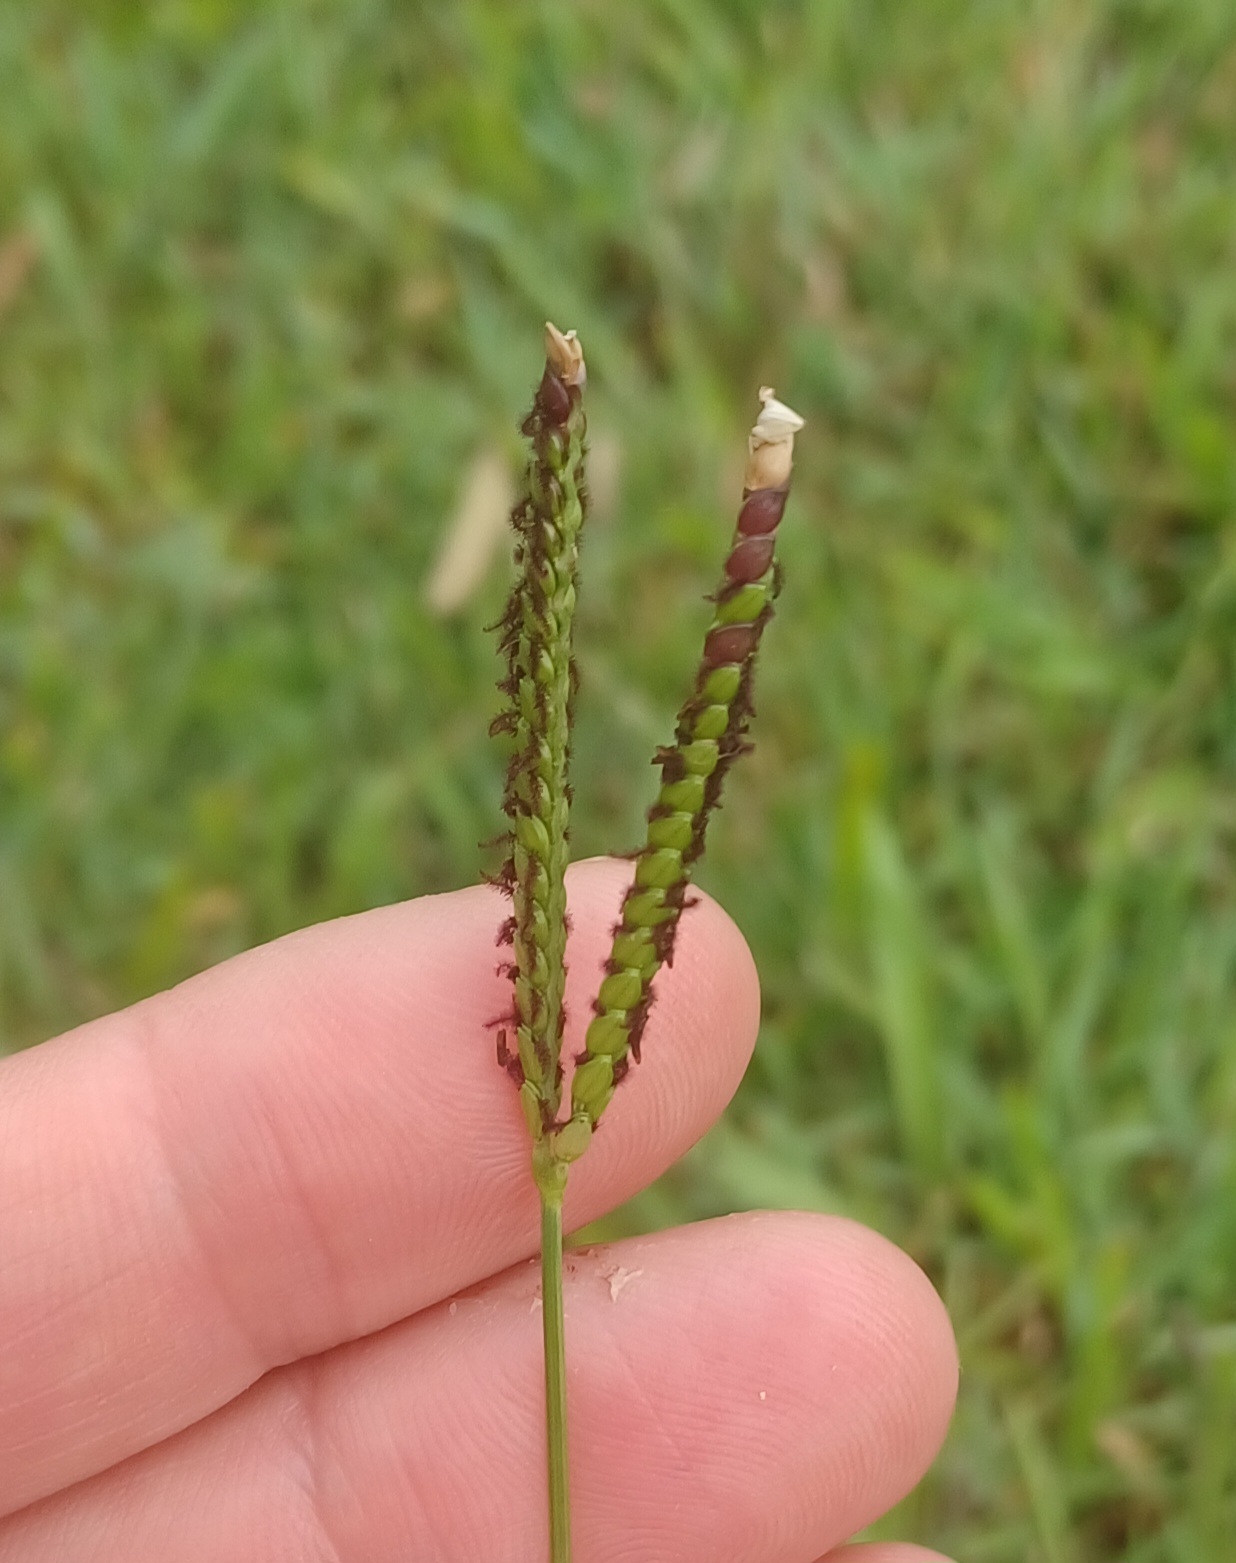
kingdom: Plantae
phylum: Tracheophyta
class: Liliopsida
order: Poales
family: Poaceae
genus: Paspalum
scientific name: Paspalum notatum
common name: Bahiagrass
